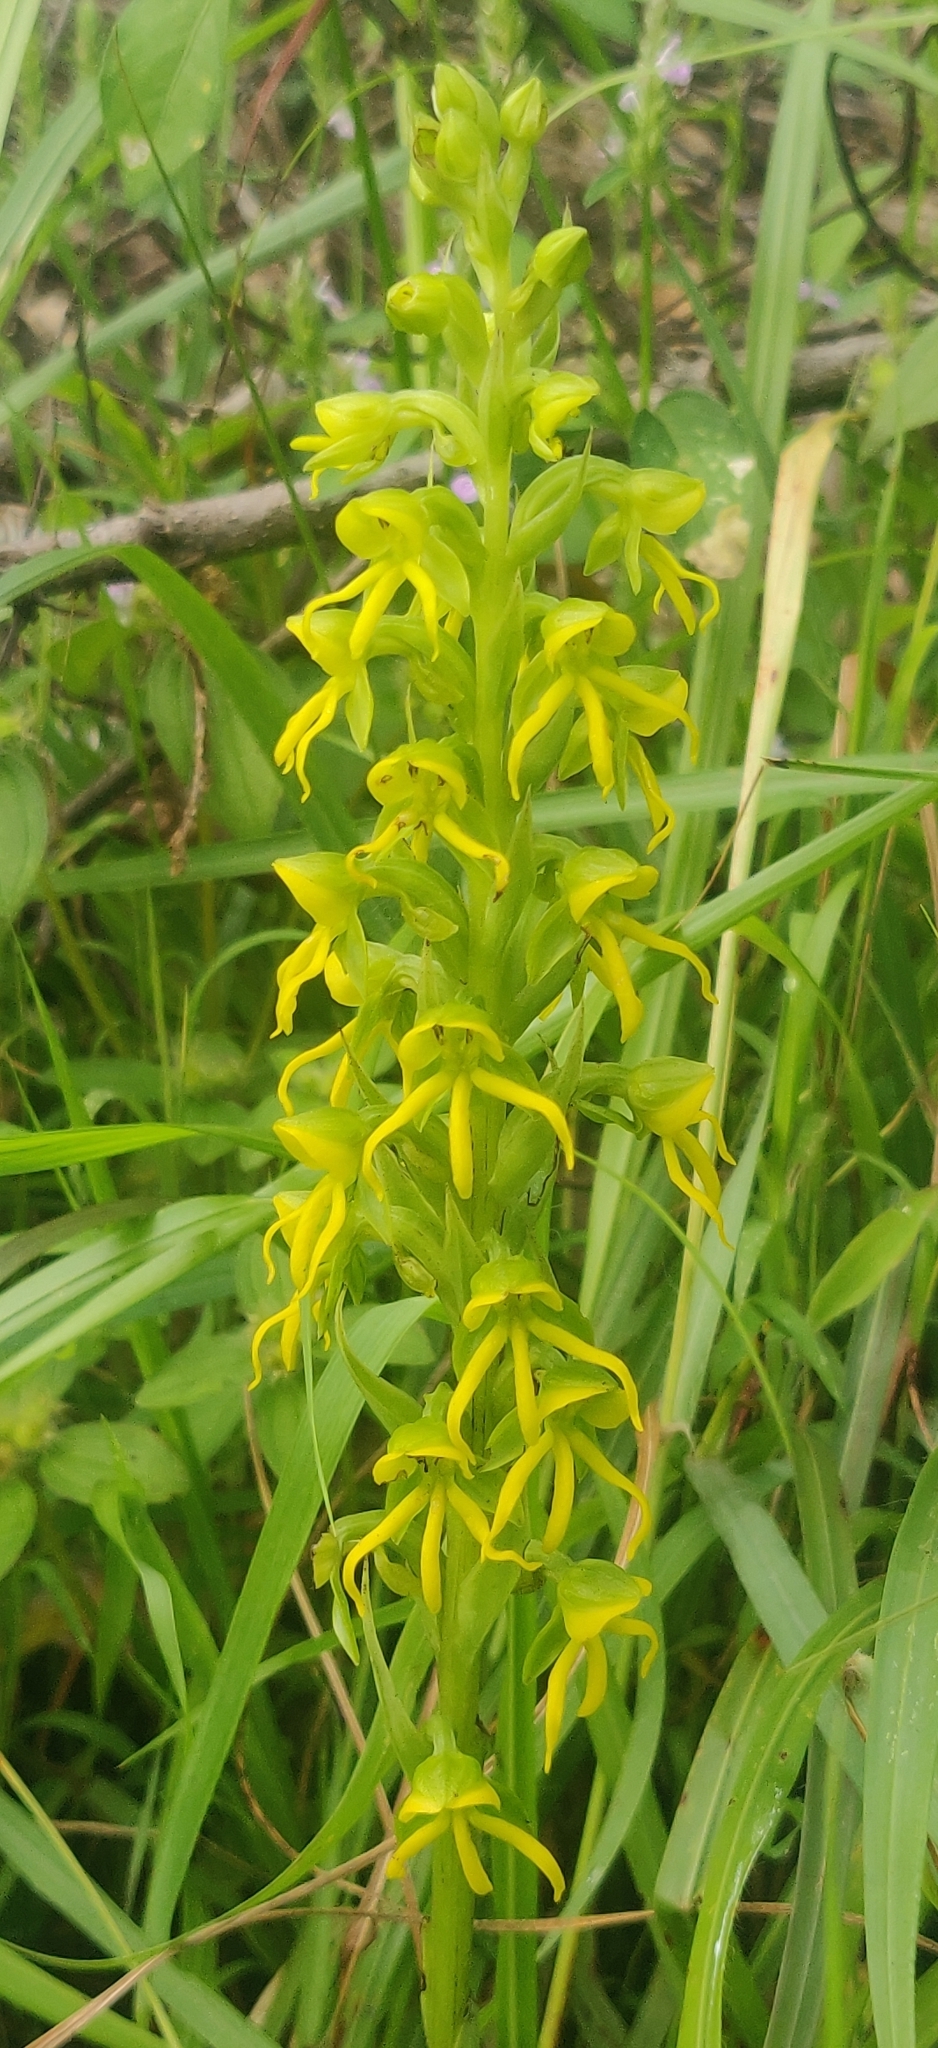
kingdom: Plantae
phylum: Tracheophyta
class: Liliopsida
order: Asparagales
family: Orchidaceae
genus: Habenaria
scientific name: Habenaria marginata
